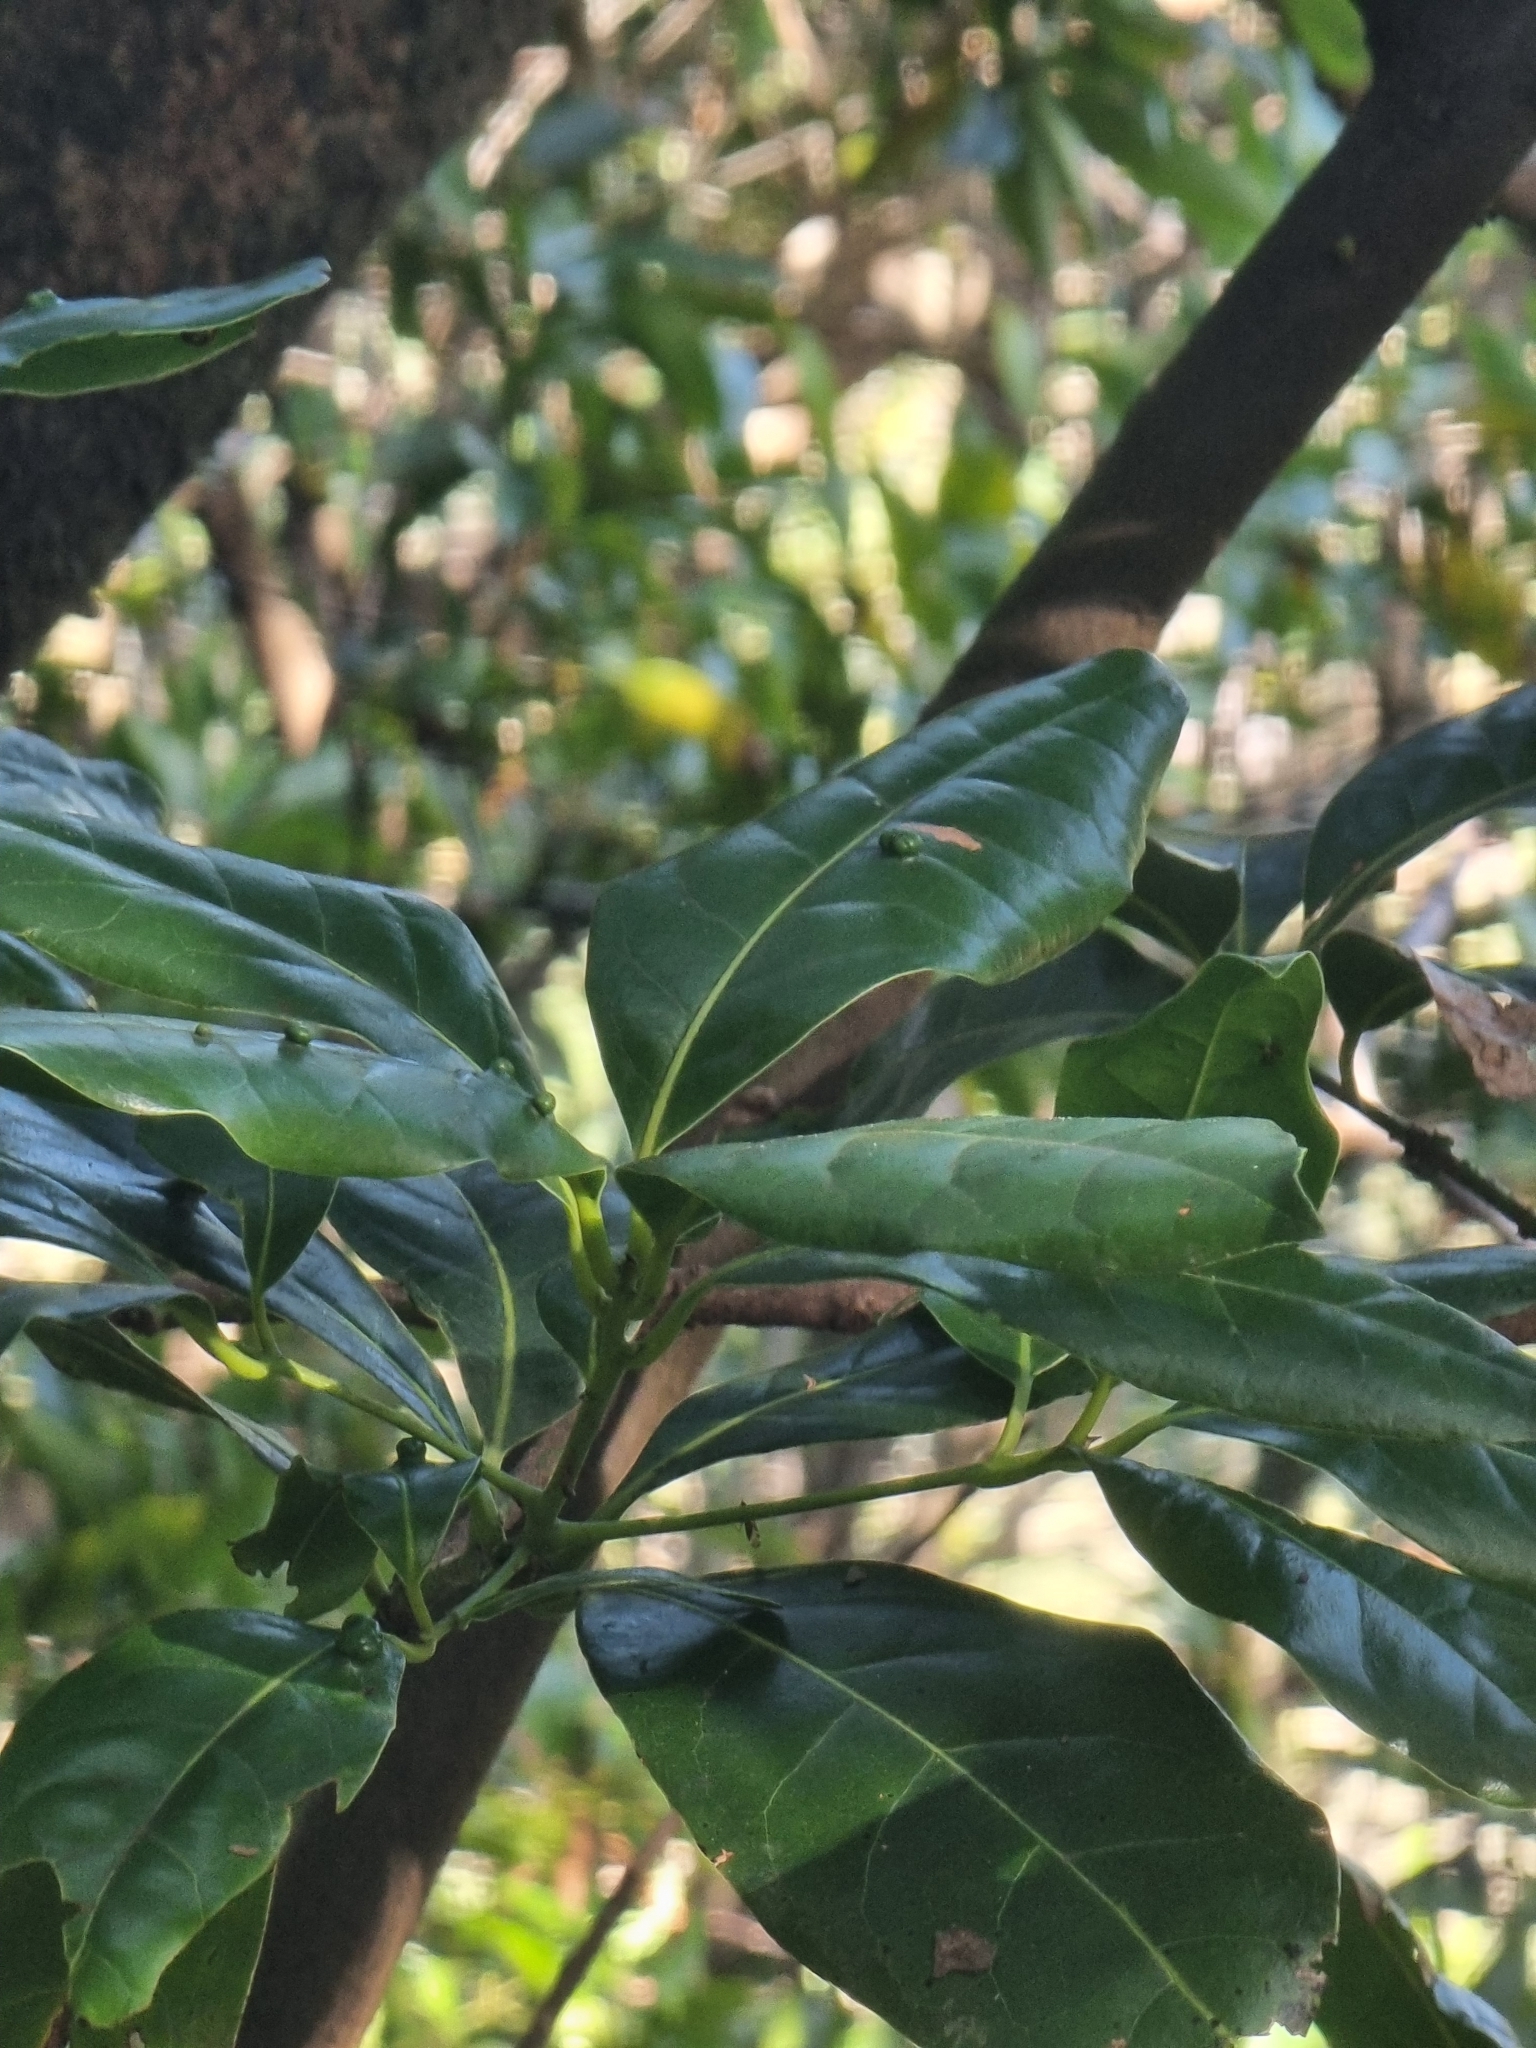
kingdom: Plantae
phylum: Tracheophyta
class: Magnoliopsida
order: Laurales
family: Lauraceae
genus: Apollonias
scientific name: Apollonias barbujana
